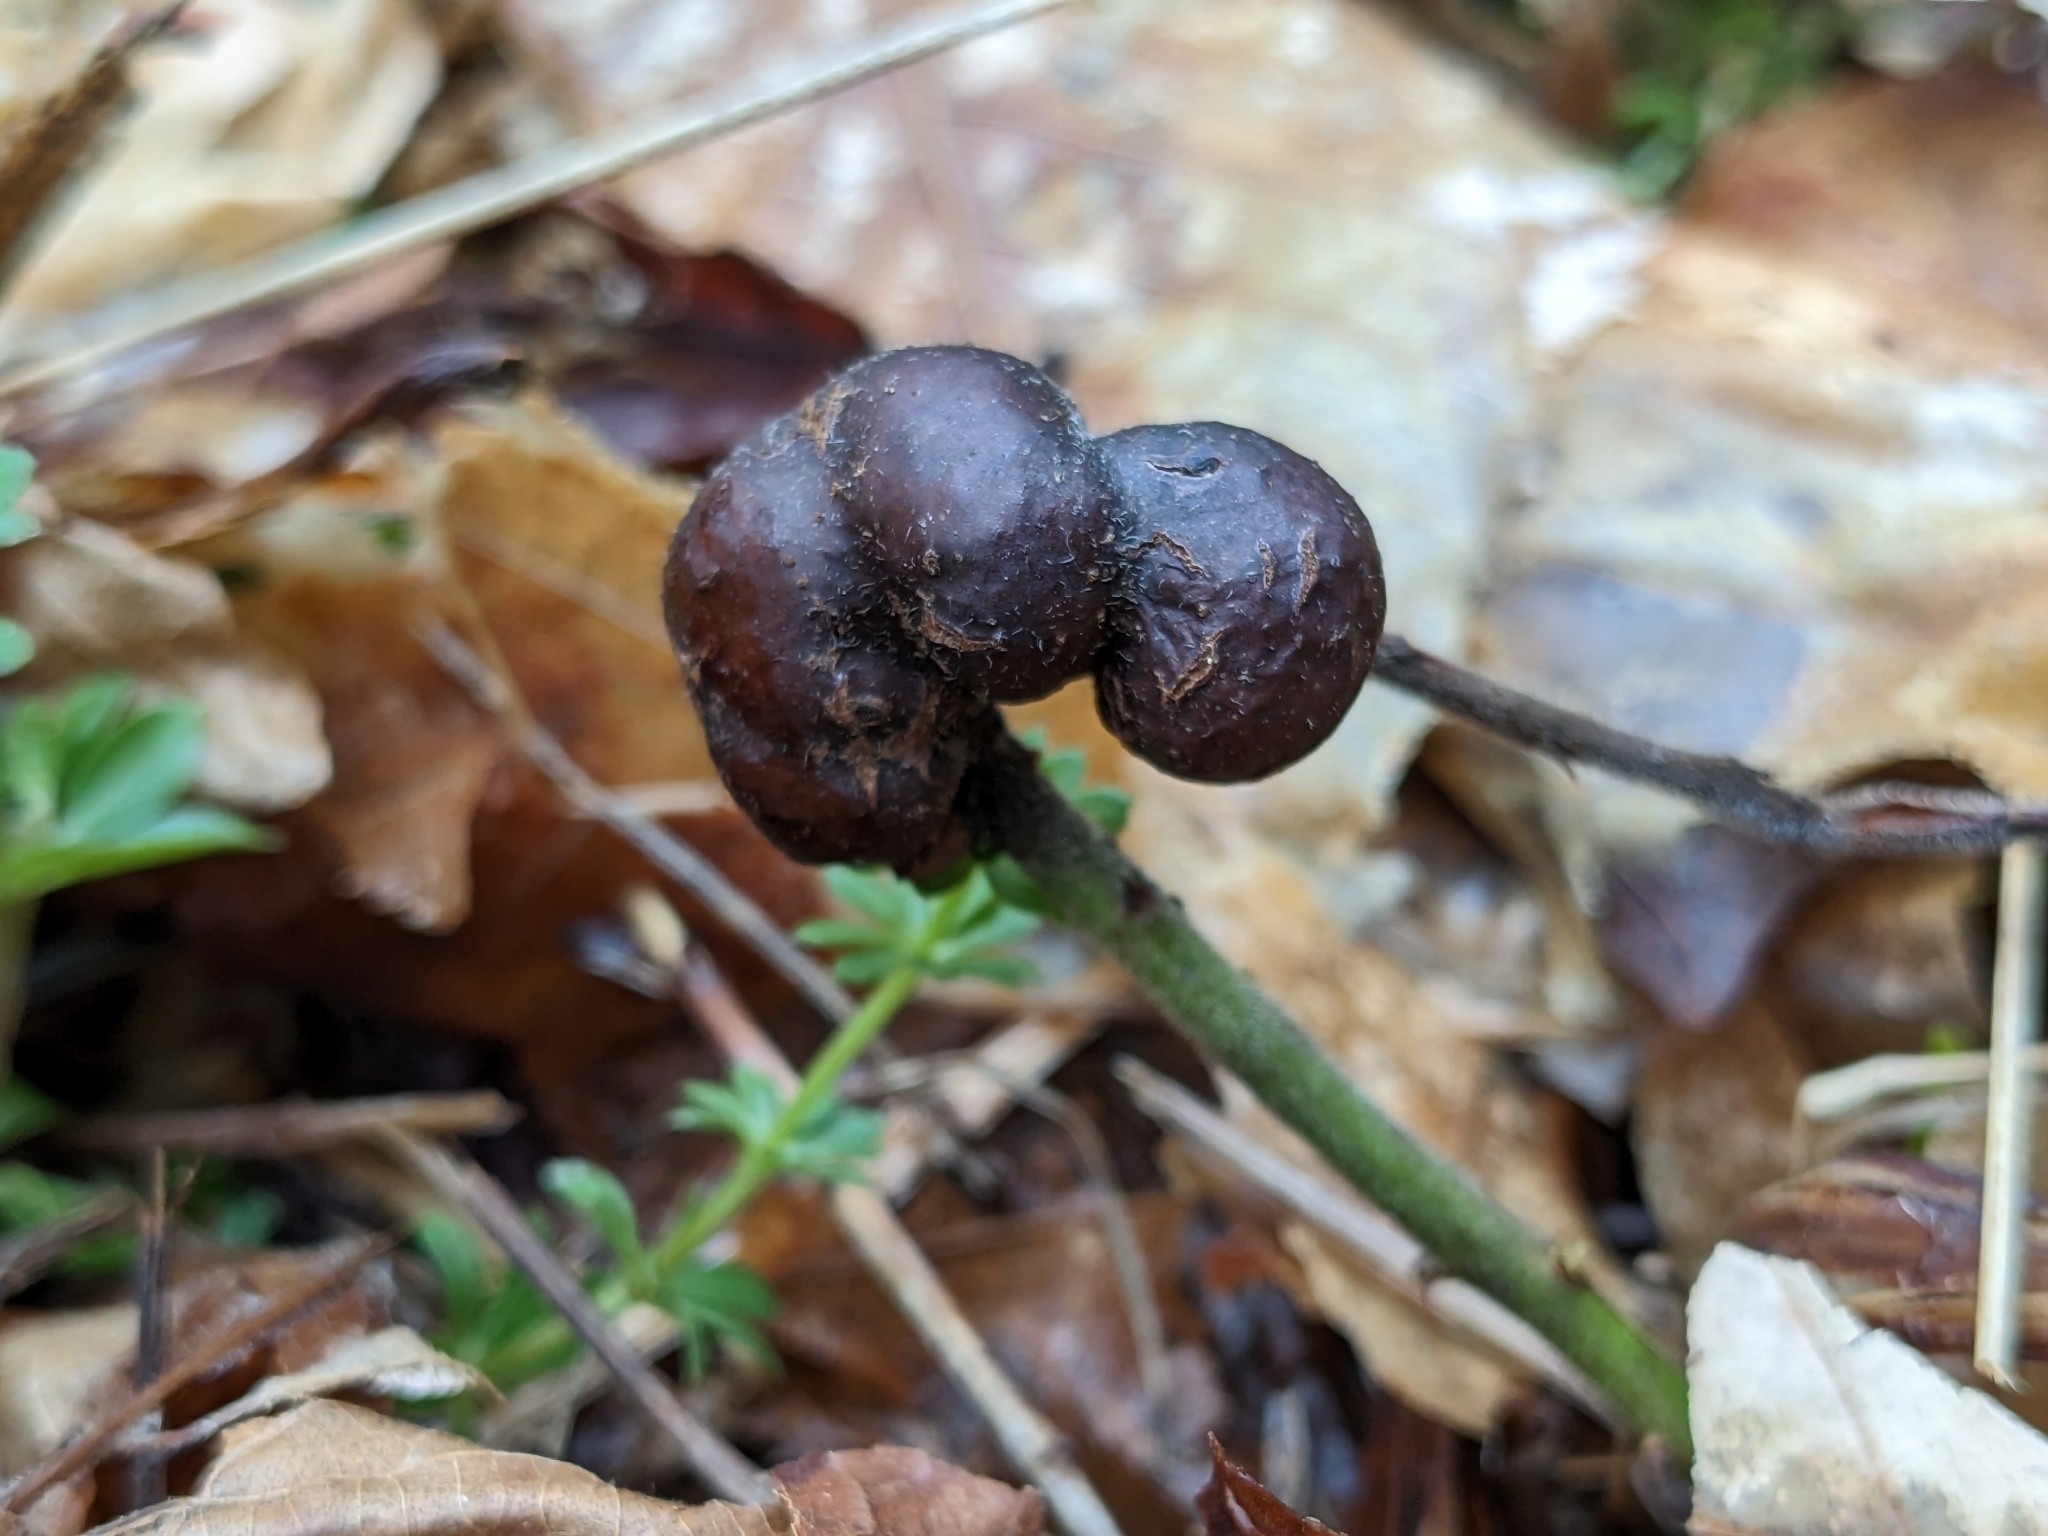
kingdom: Animalia
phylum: Arthropoda
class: Insecta
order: Hymenoptera
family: Pteromalidae
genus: Hemadas
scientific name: Hemadas nubilipennis
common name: Blueberry stem gall wasp
